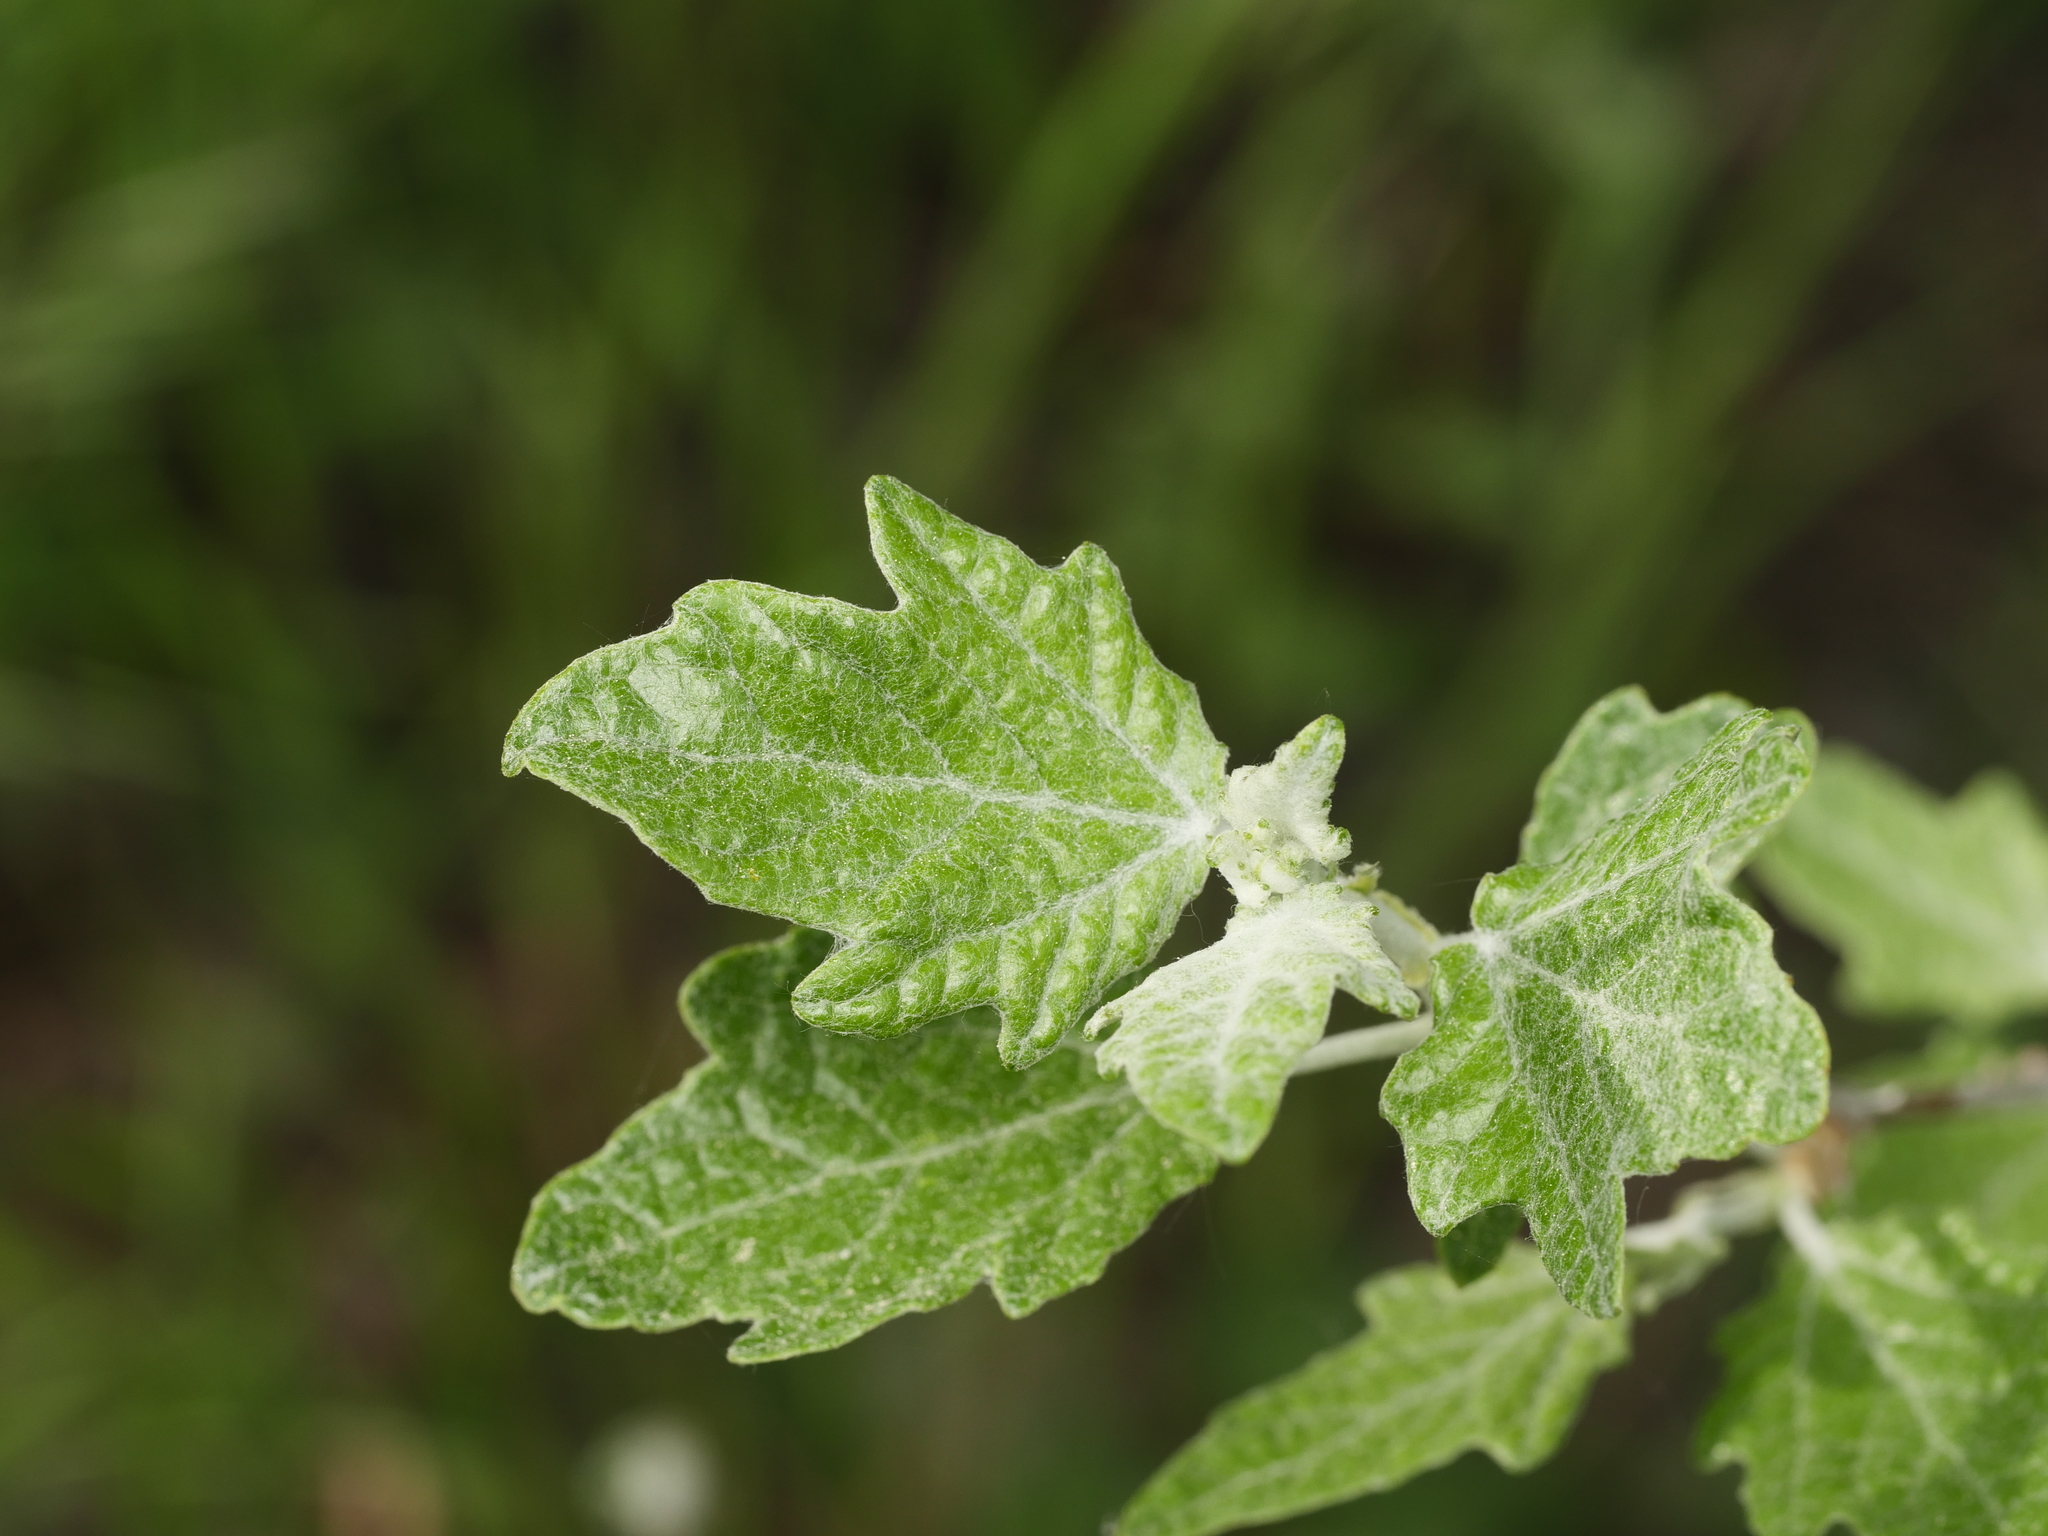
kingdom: Plantae
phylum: Tracheophyta
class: Magnoliopsida
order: Malpighiales
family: Salicaceae
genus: Populus
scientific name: Populus alba
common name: White poplar
